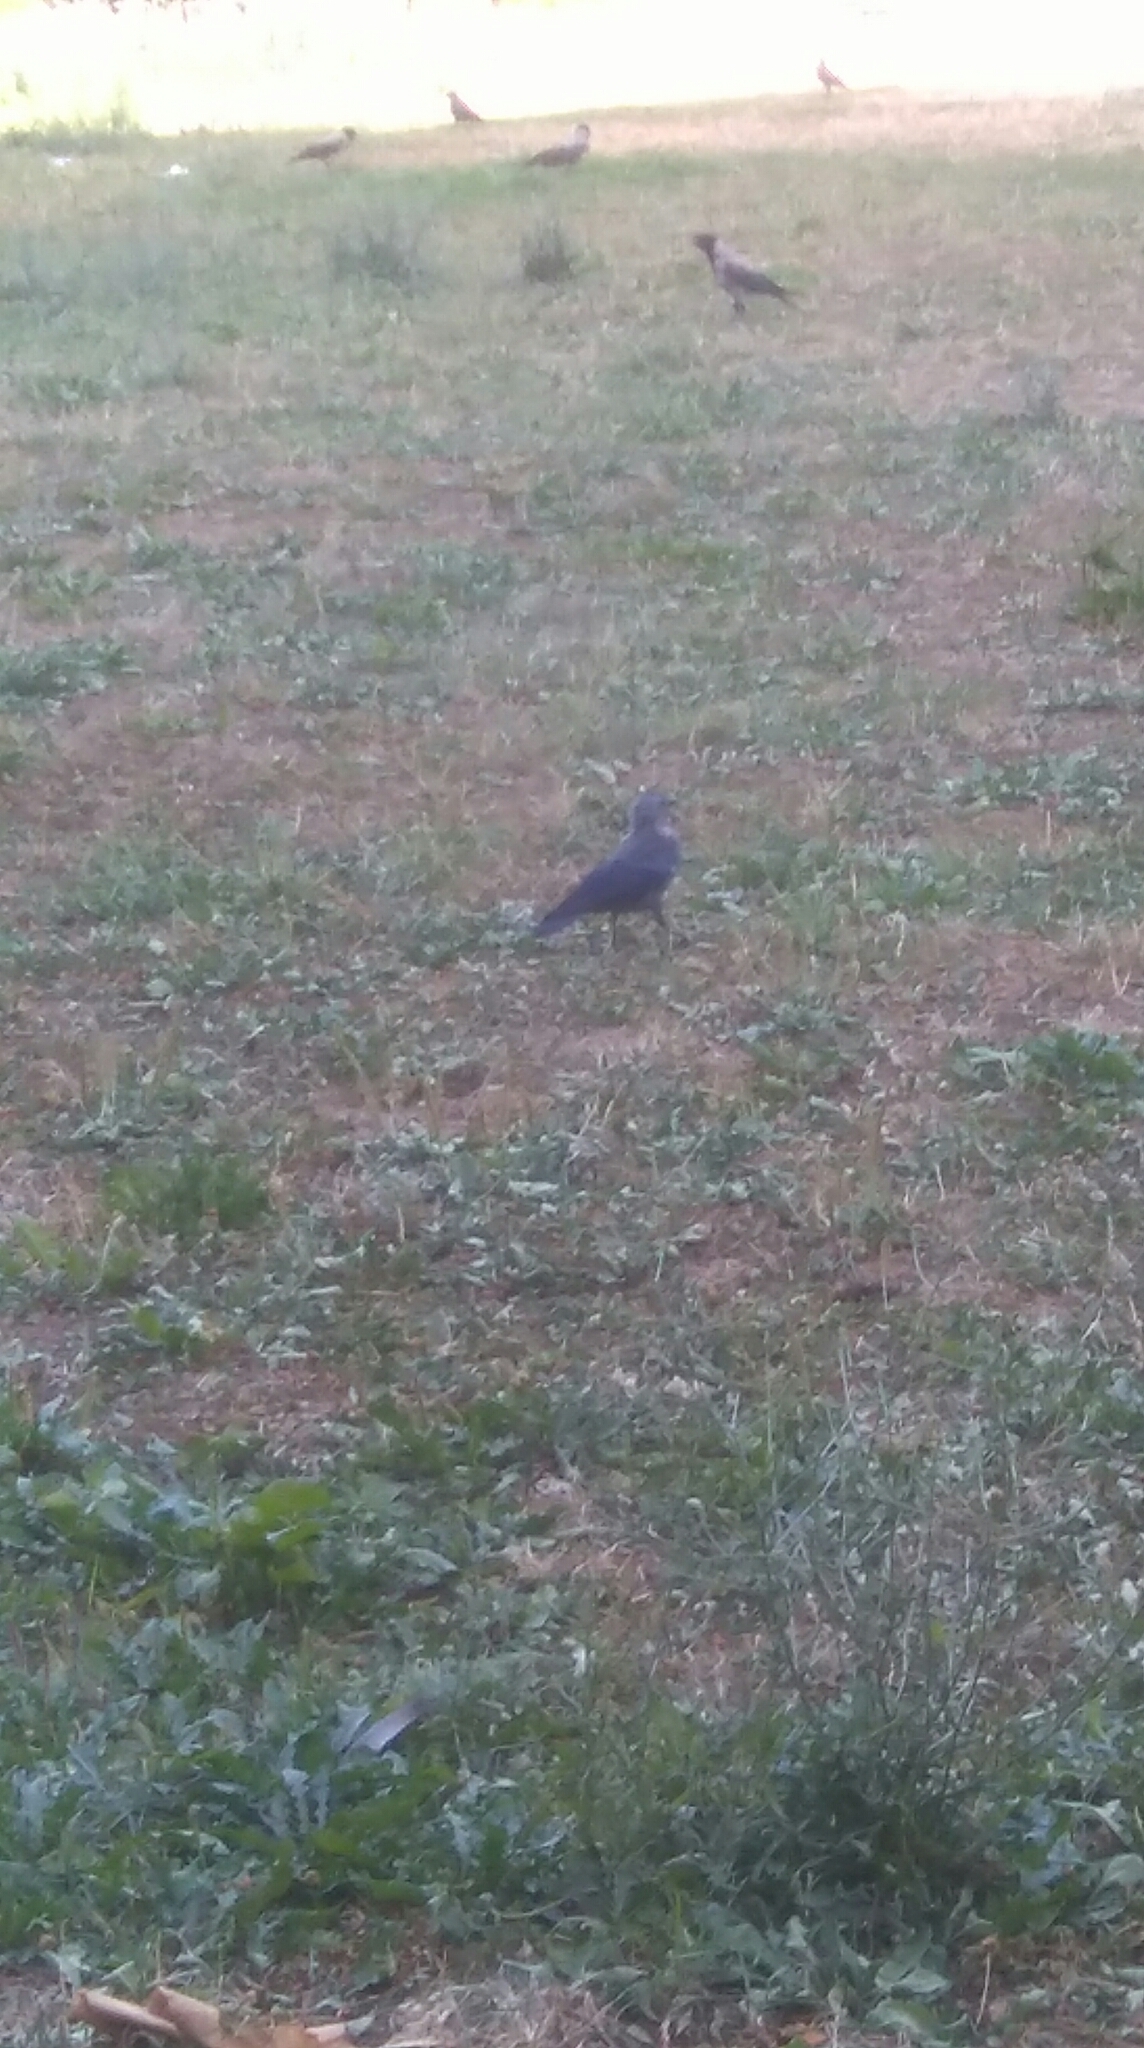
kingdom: Animalia
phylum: Chordata
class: Aves
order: Passeriformes
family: Corvidae
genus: Corvus
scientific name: Corvus cornix
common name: Hooded crow
